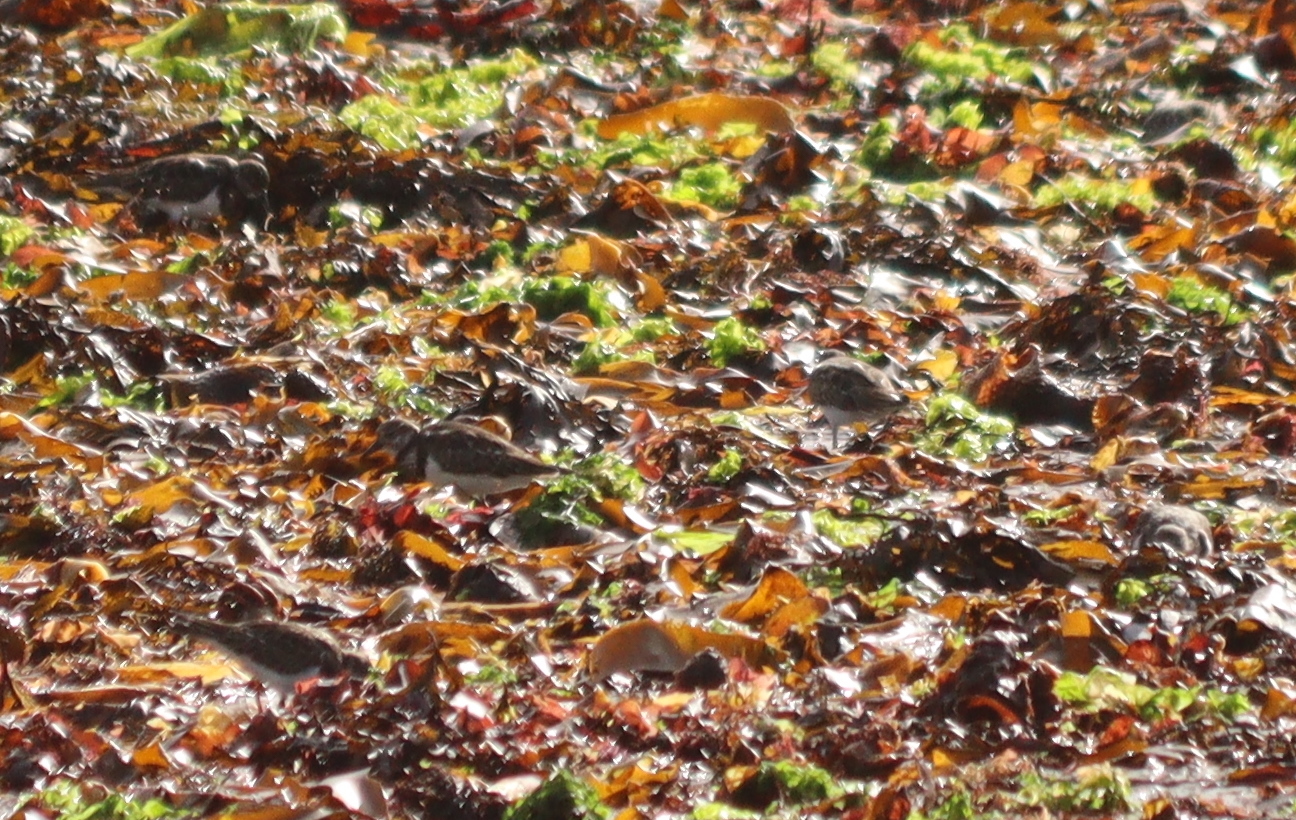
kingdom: Animalia
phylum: Chordata
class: Aves
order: Charadriiformes
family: Scolopacidae
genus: Arenaria
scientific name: Arenaria interpres
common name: Ruddy turnstone
